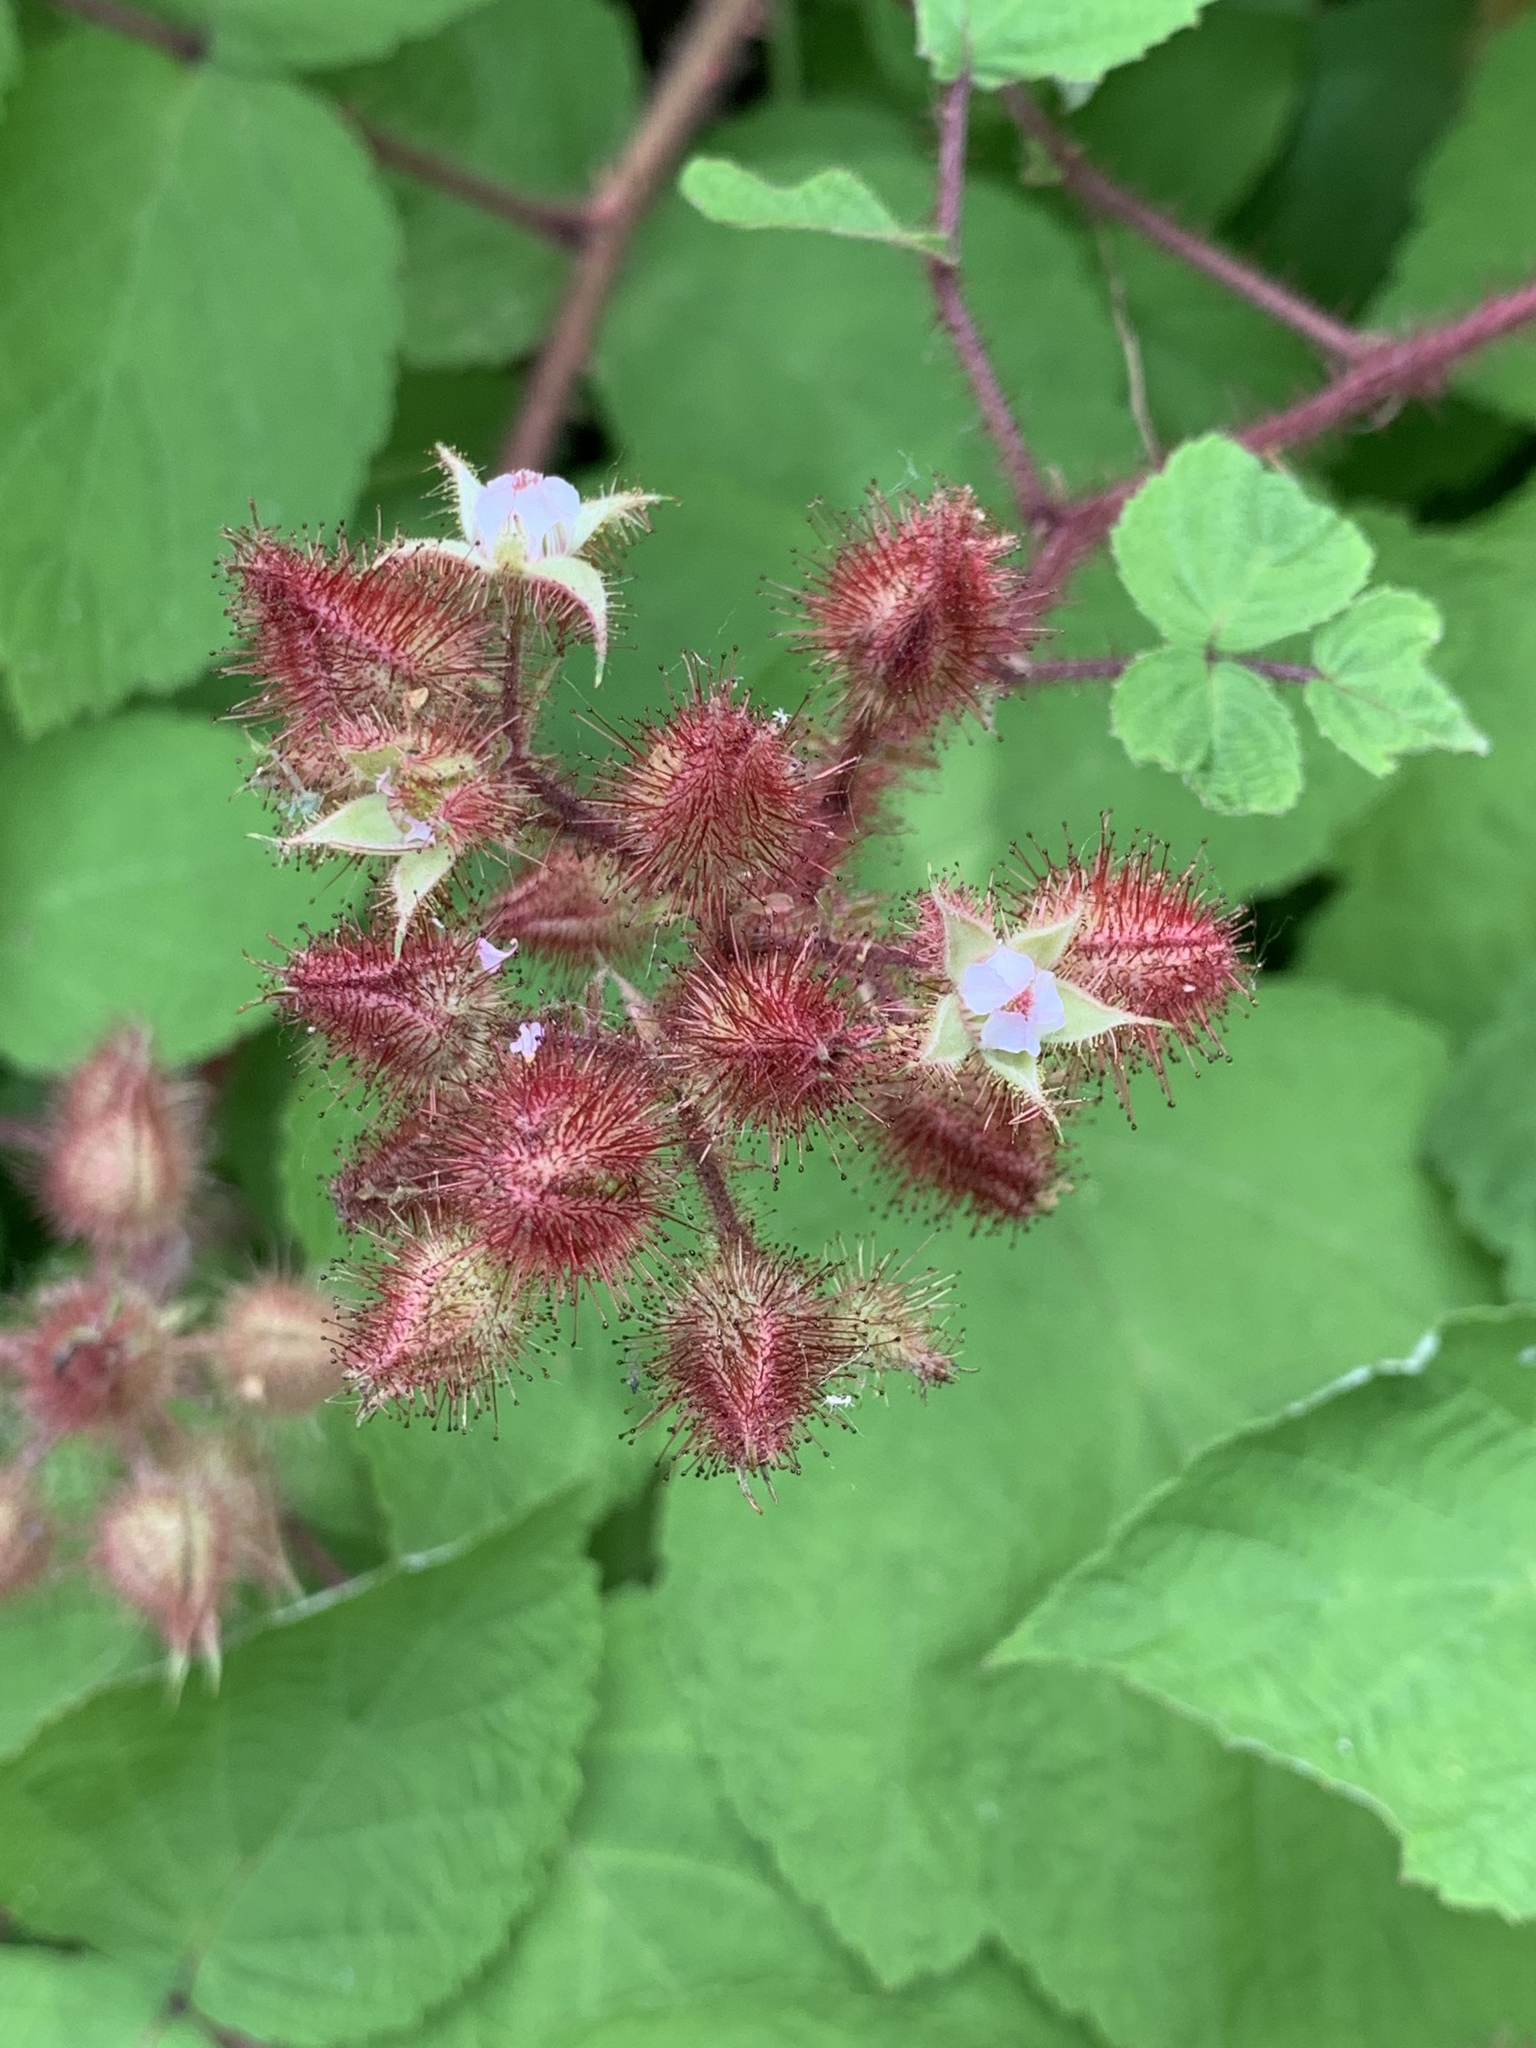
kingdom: Plantae
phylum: Tracheophyta
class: Magnoliopsida
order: Rosales
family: Rosaceae
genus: Rubus
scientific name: Rubus phoenicolasius
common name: Japanese wineberry
